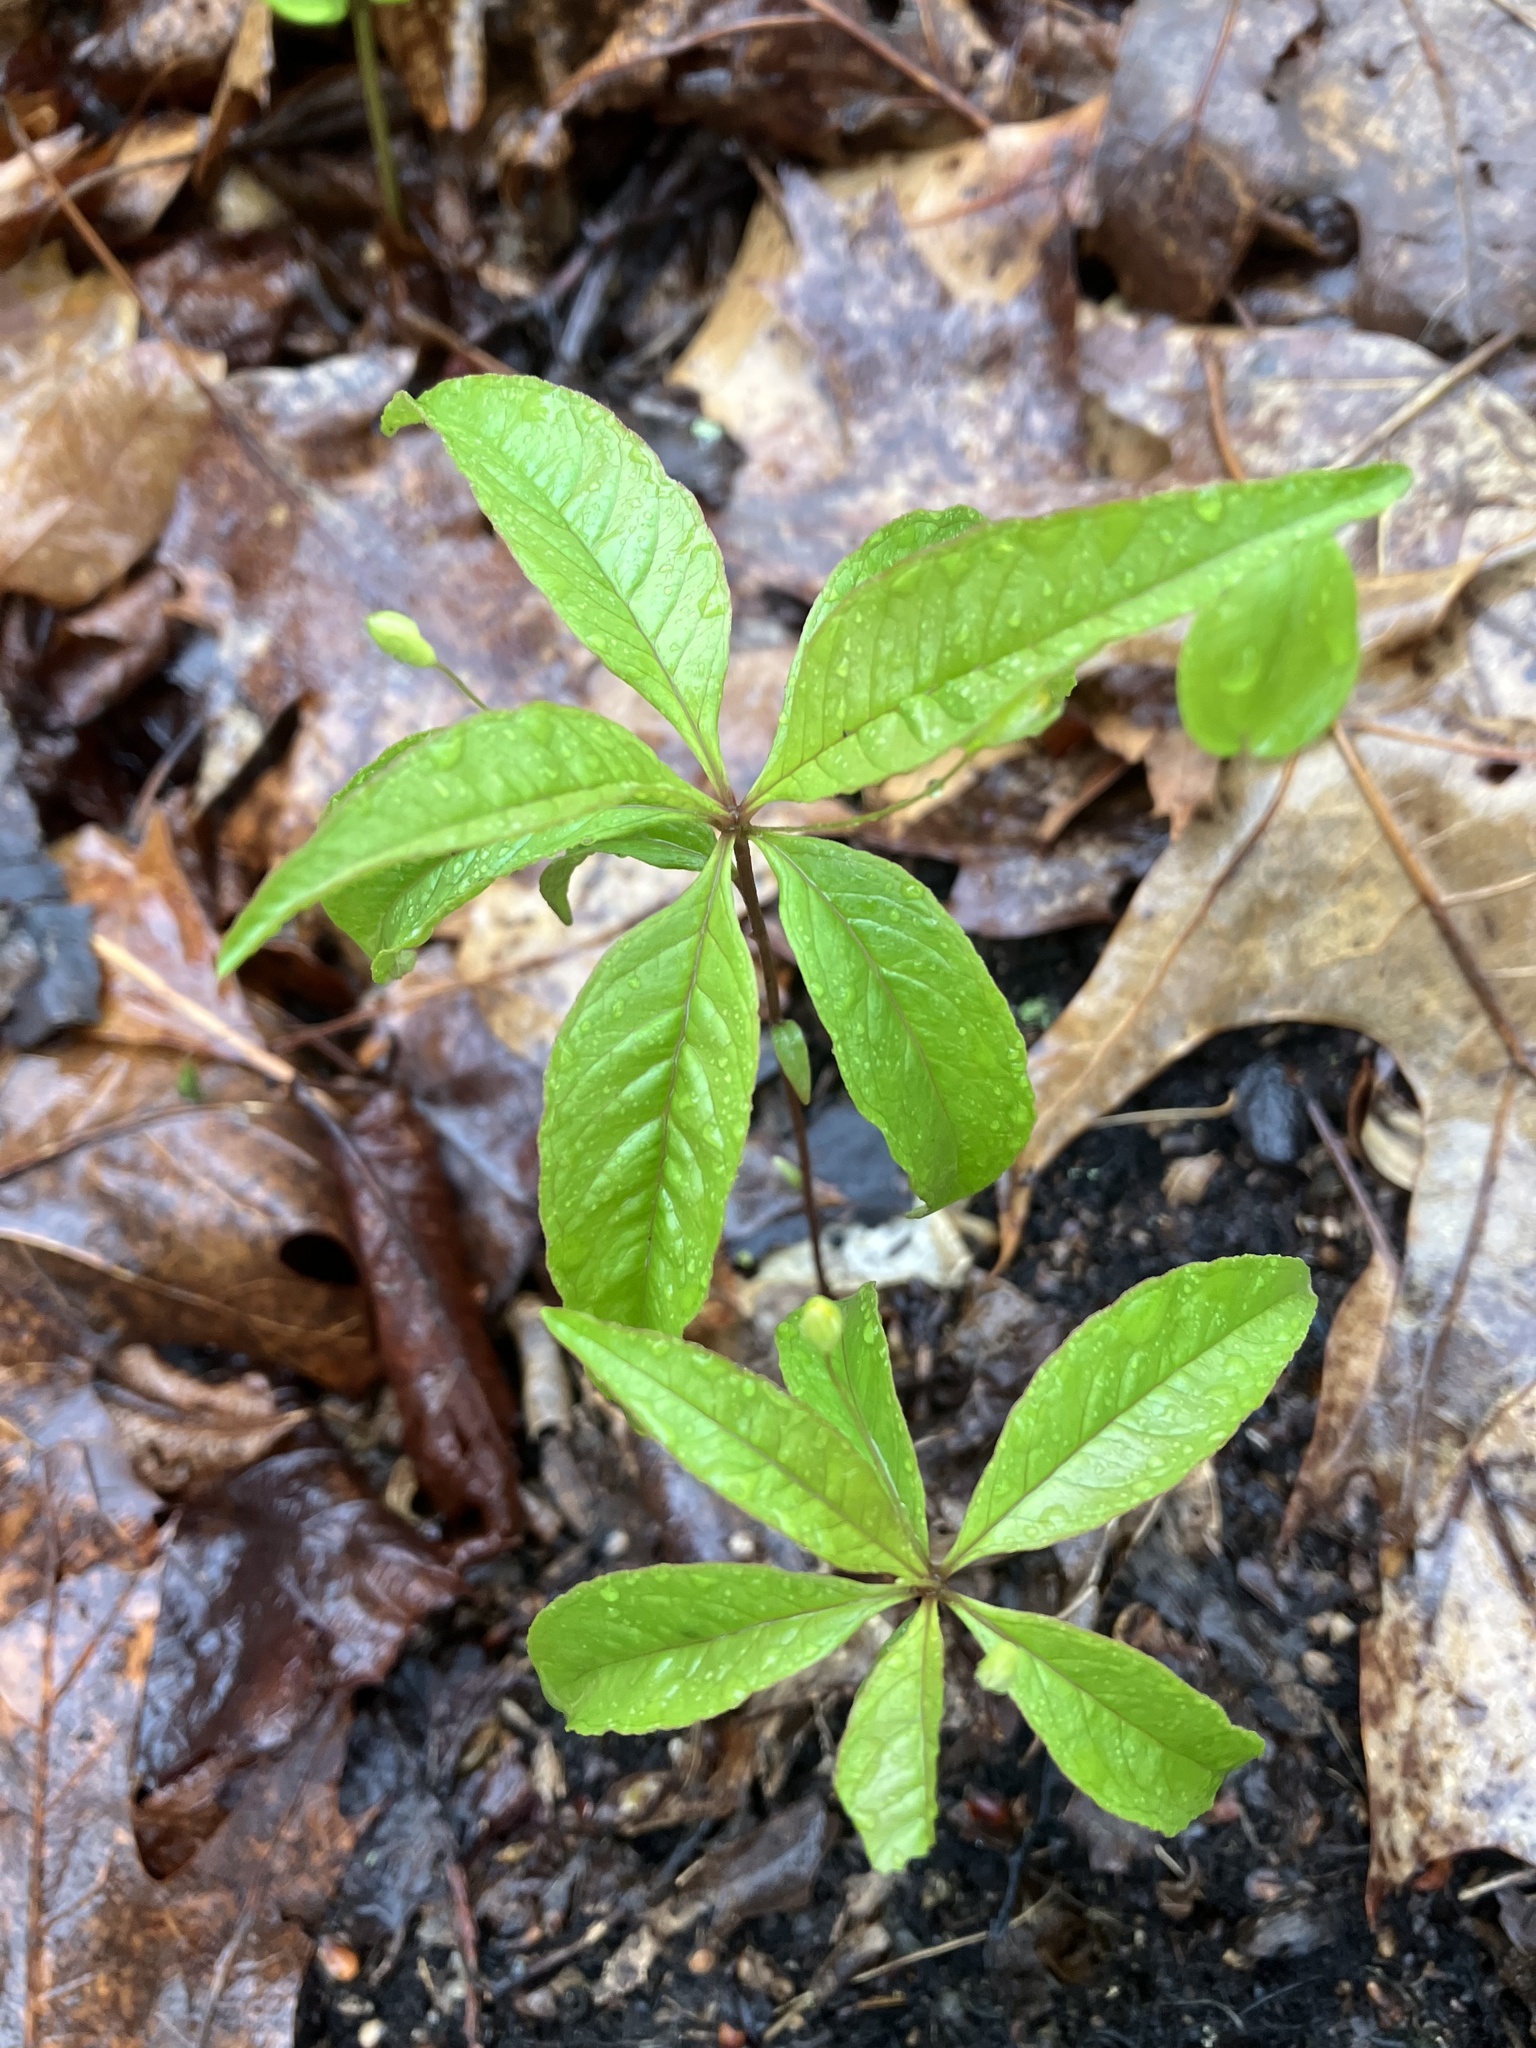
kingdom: Plantae
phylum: Tracheophyta
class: Magnoliopsida
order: Ericales
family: Primulaceae
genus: Lysimachia
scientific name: Lysimachia borealis
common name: American starflower
